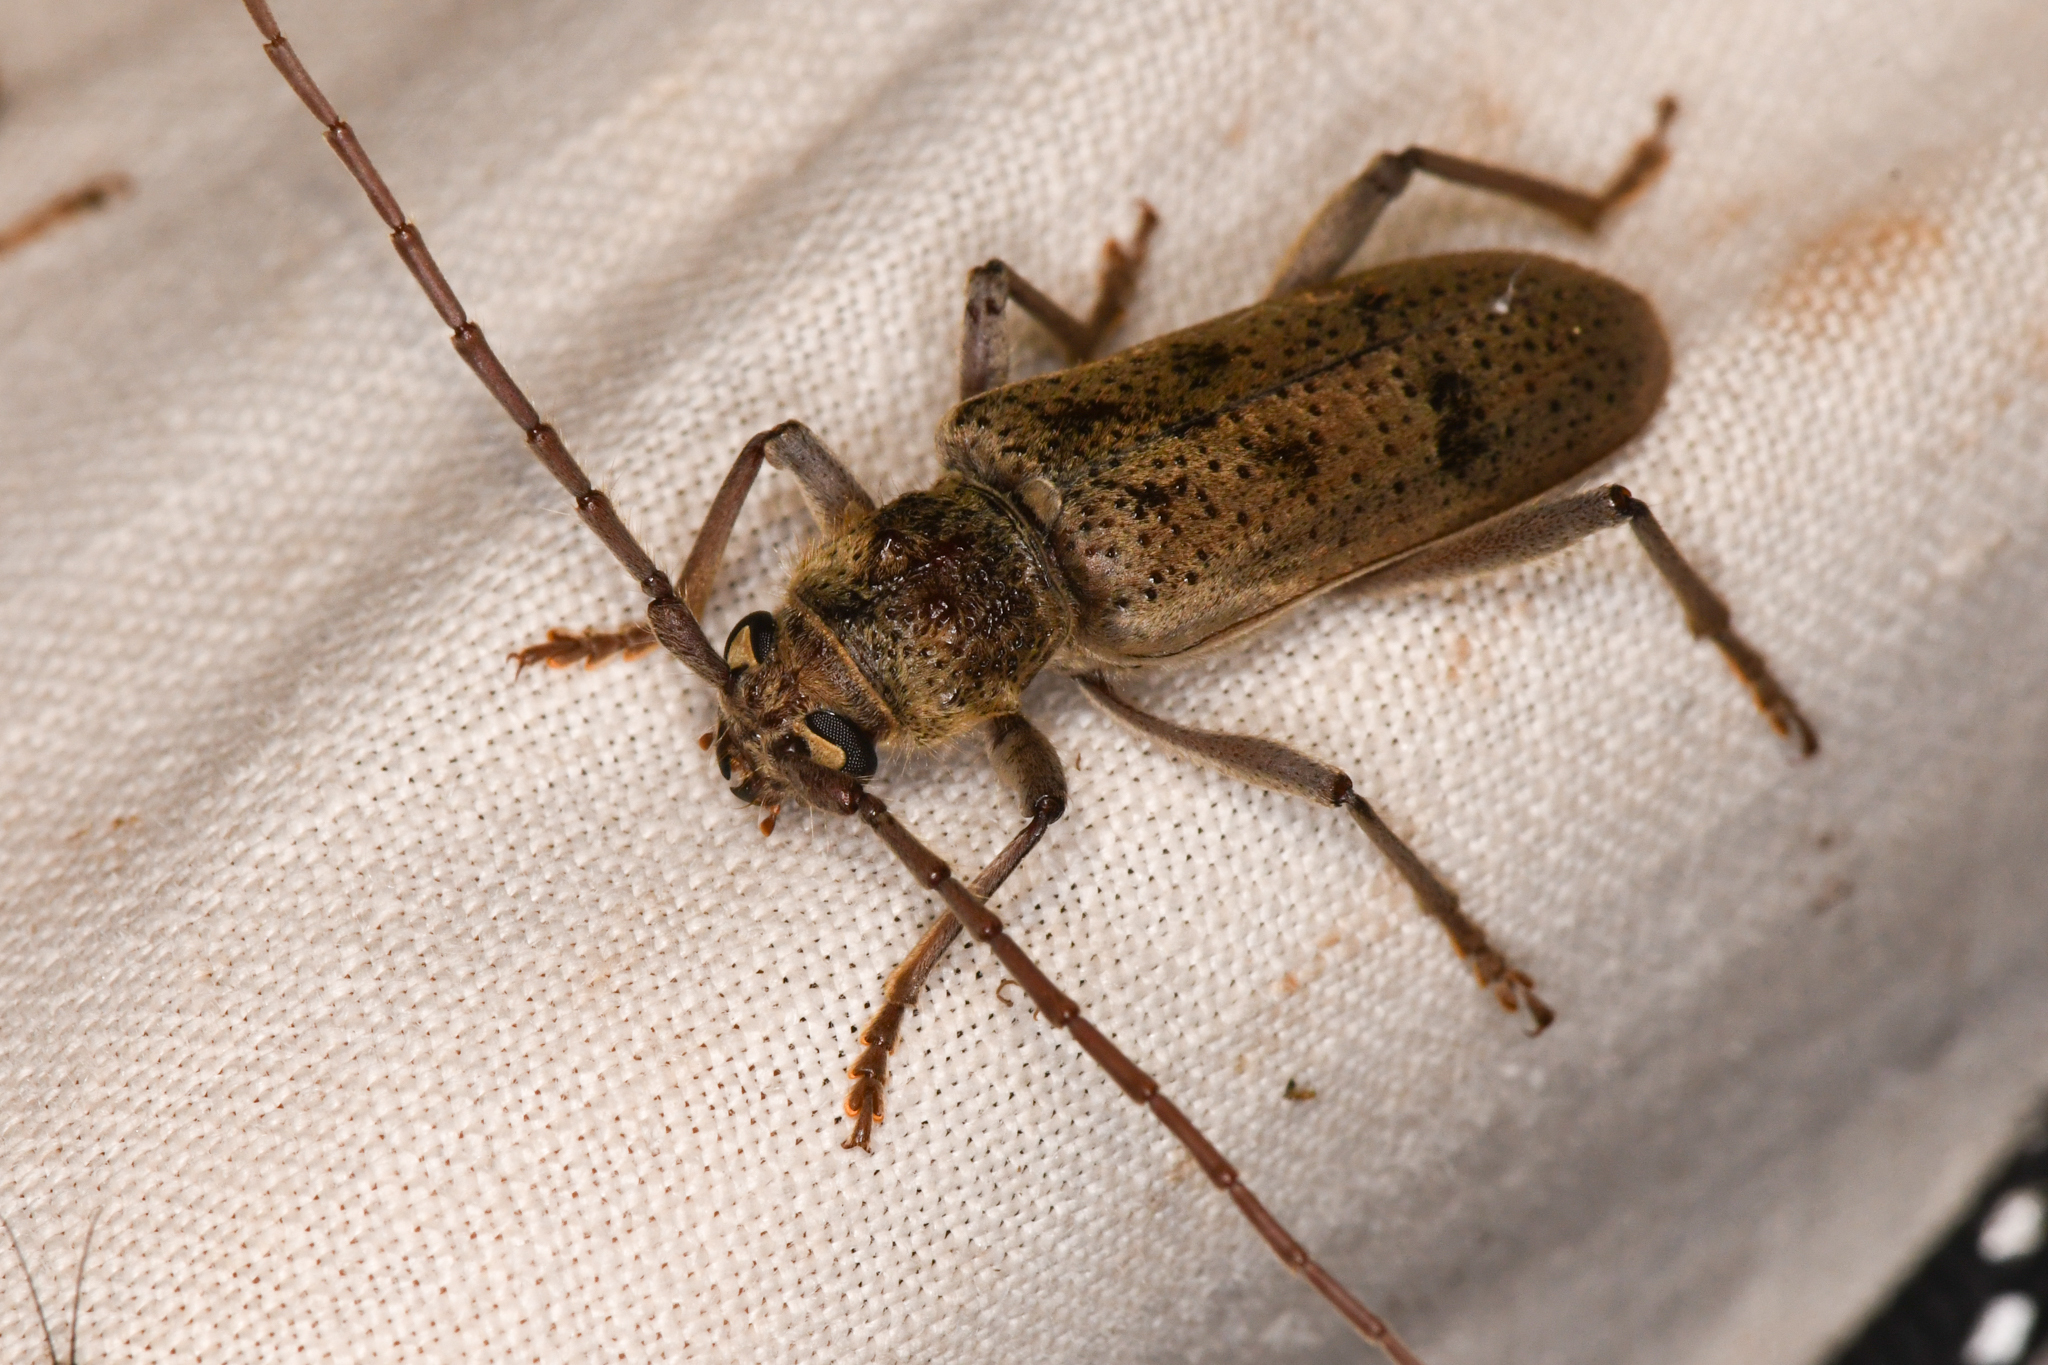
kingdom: Animalia
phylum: Arthropoda
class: Insecta
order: Coleoptera
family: Cerambycidae
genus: Brothylus
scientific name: Brothylus gemmulatus
